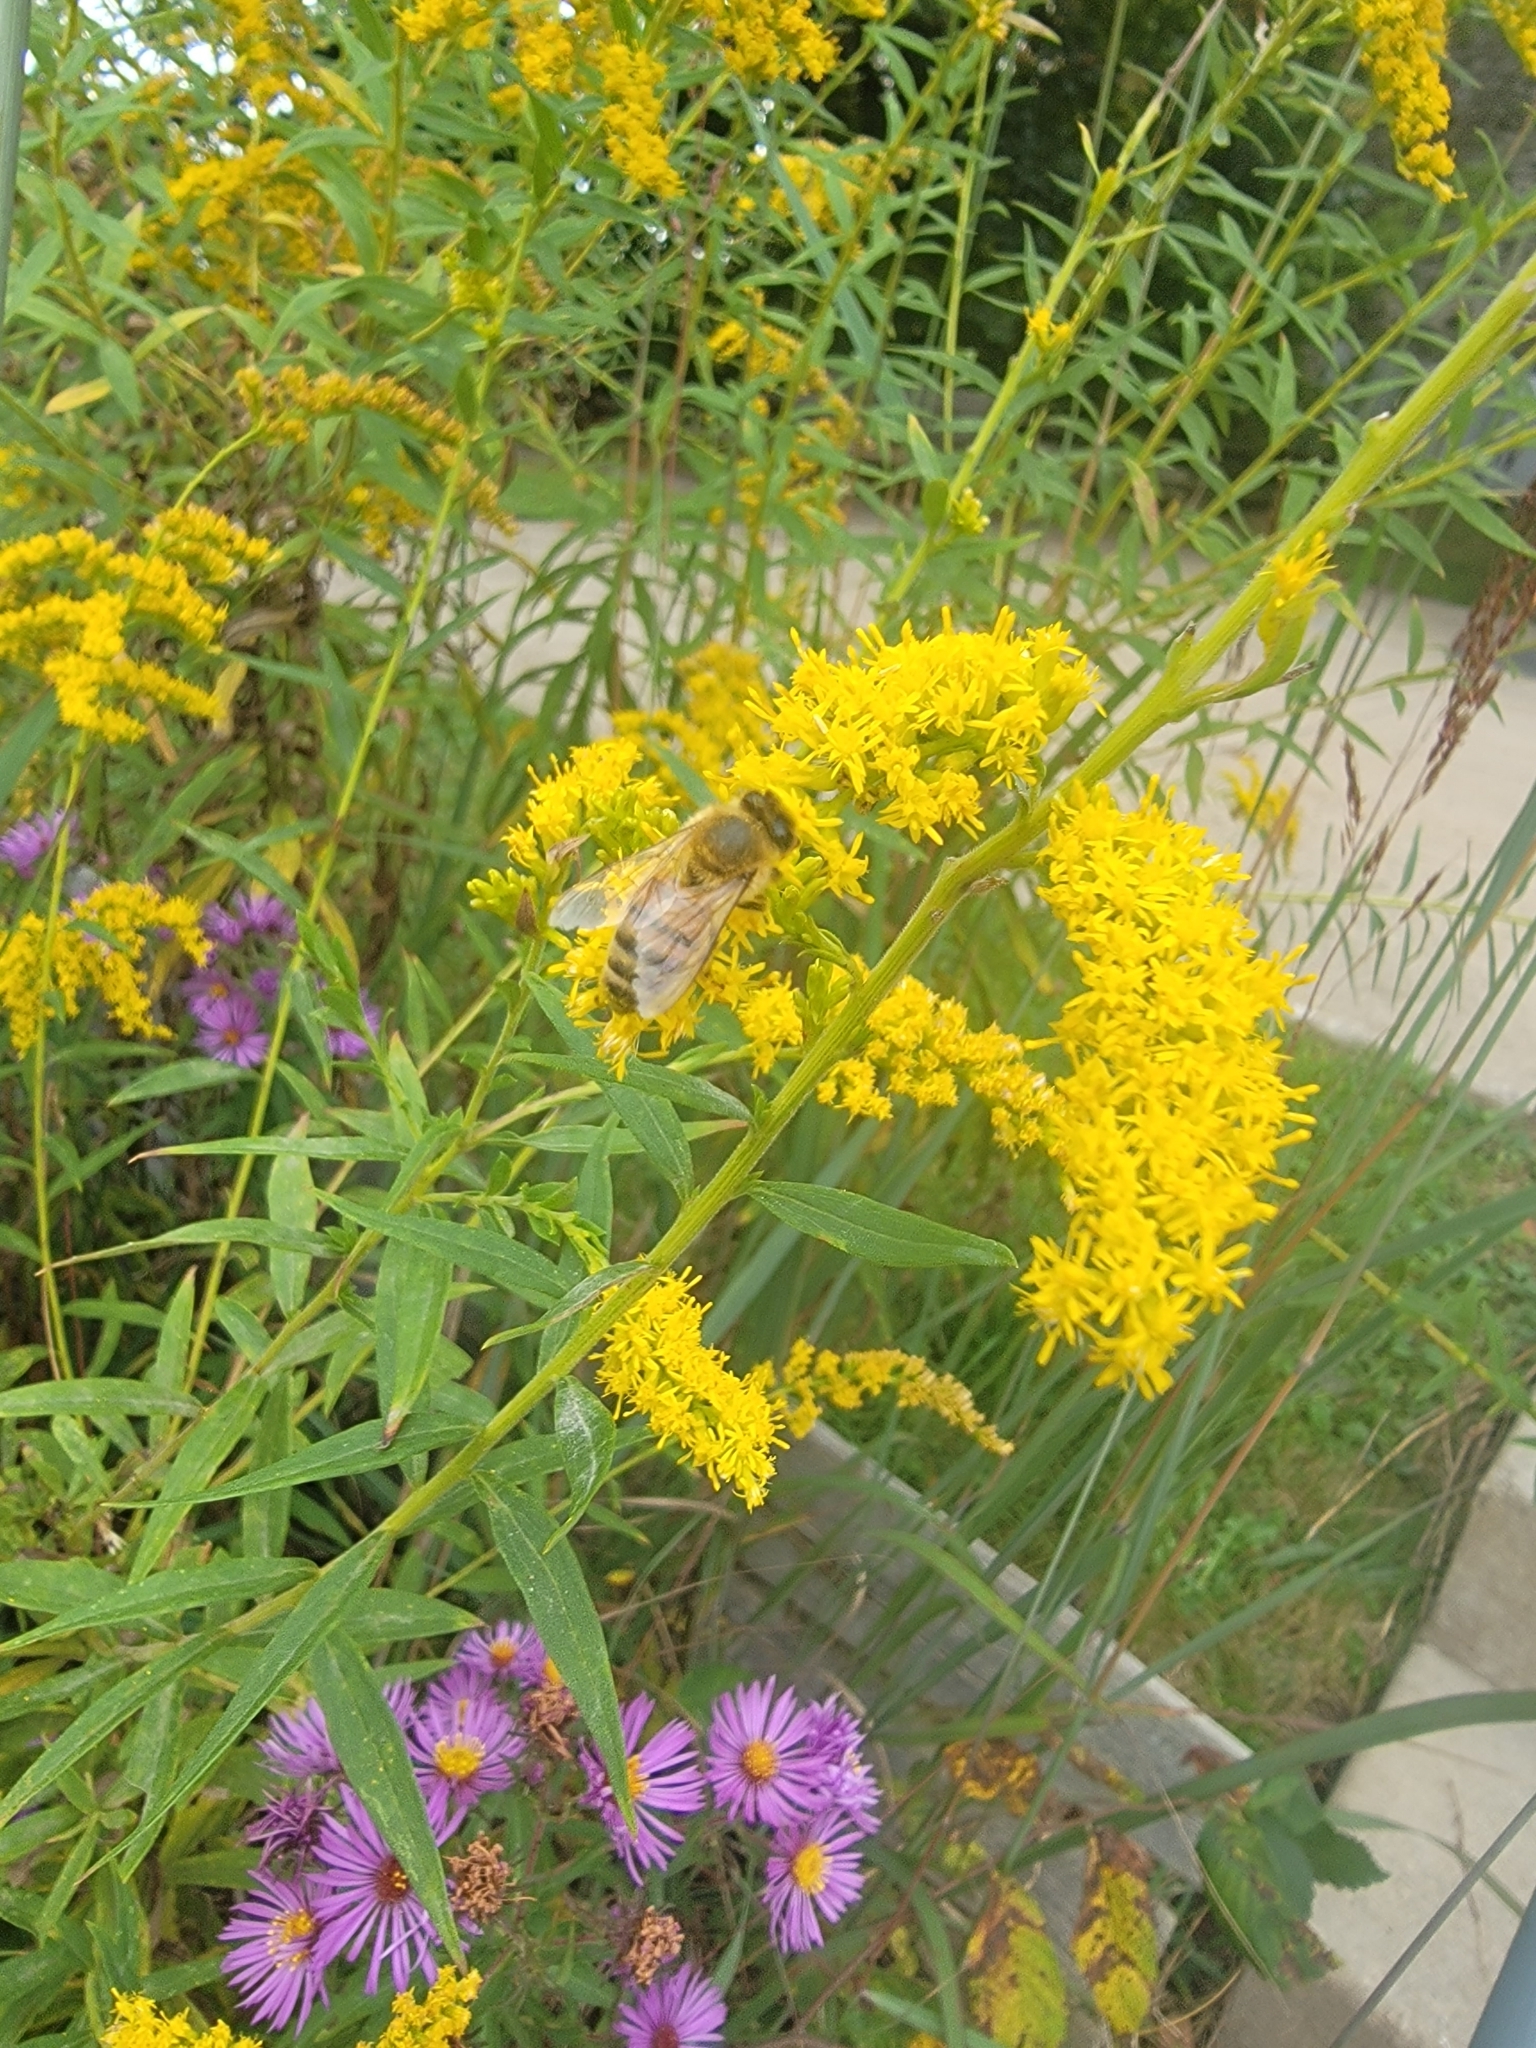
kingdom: Animalia
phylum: Arthropoda
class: Insecta
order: Hymenoptera
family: Apidae
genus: Apis
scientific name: Apis mellifera
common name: Honey bee
